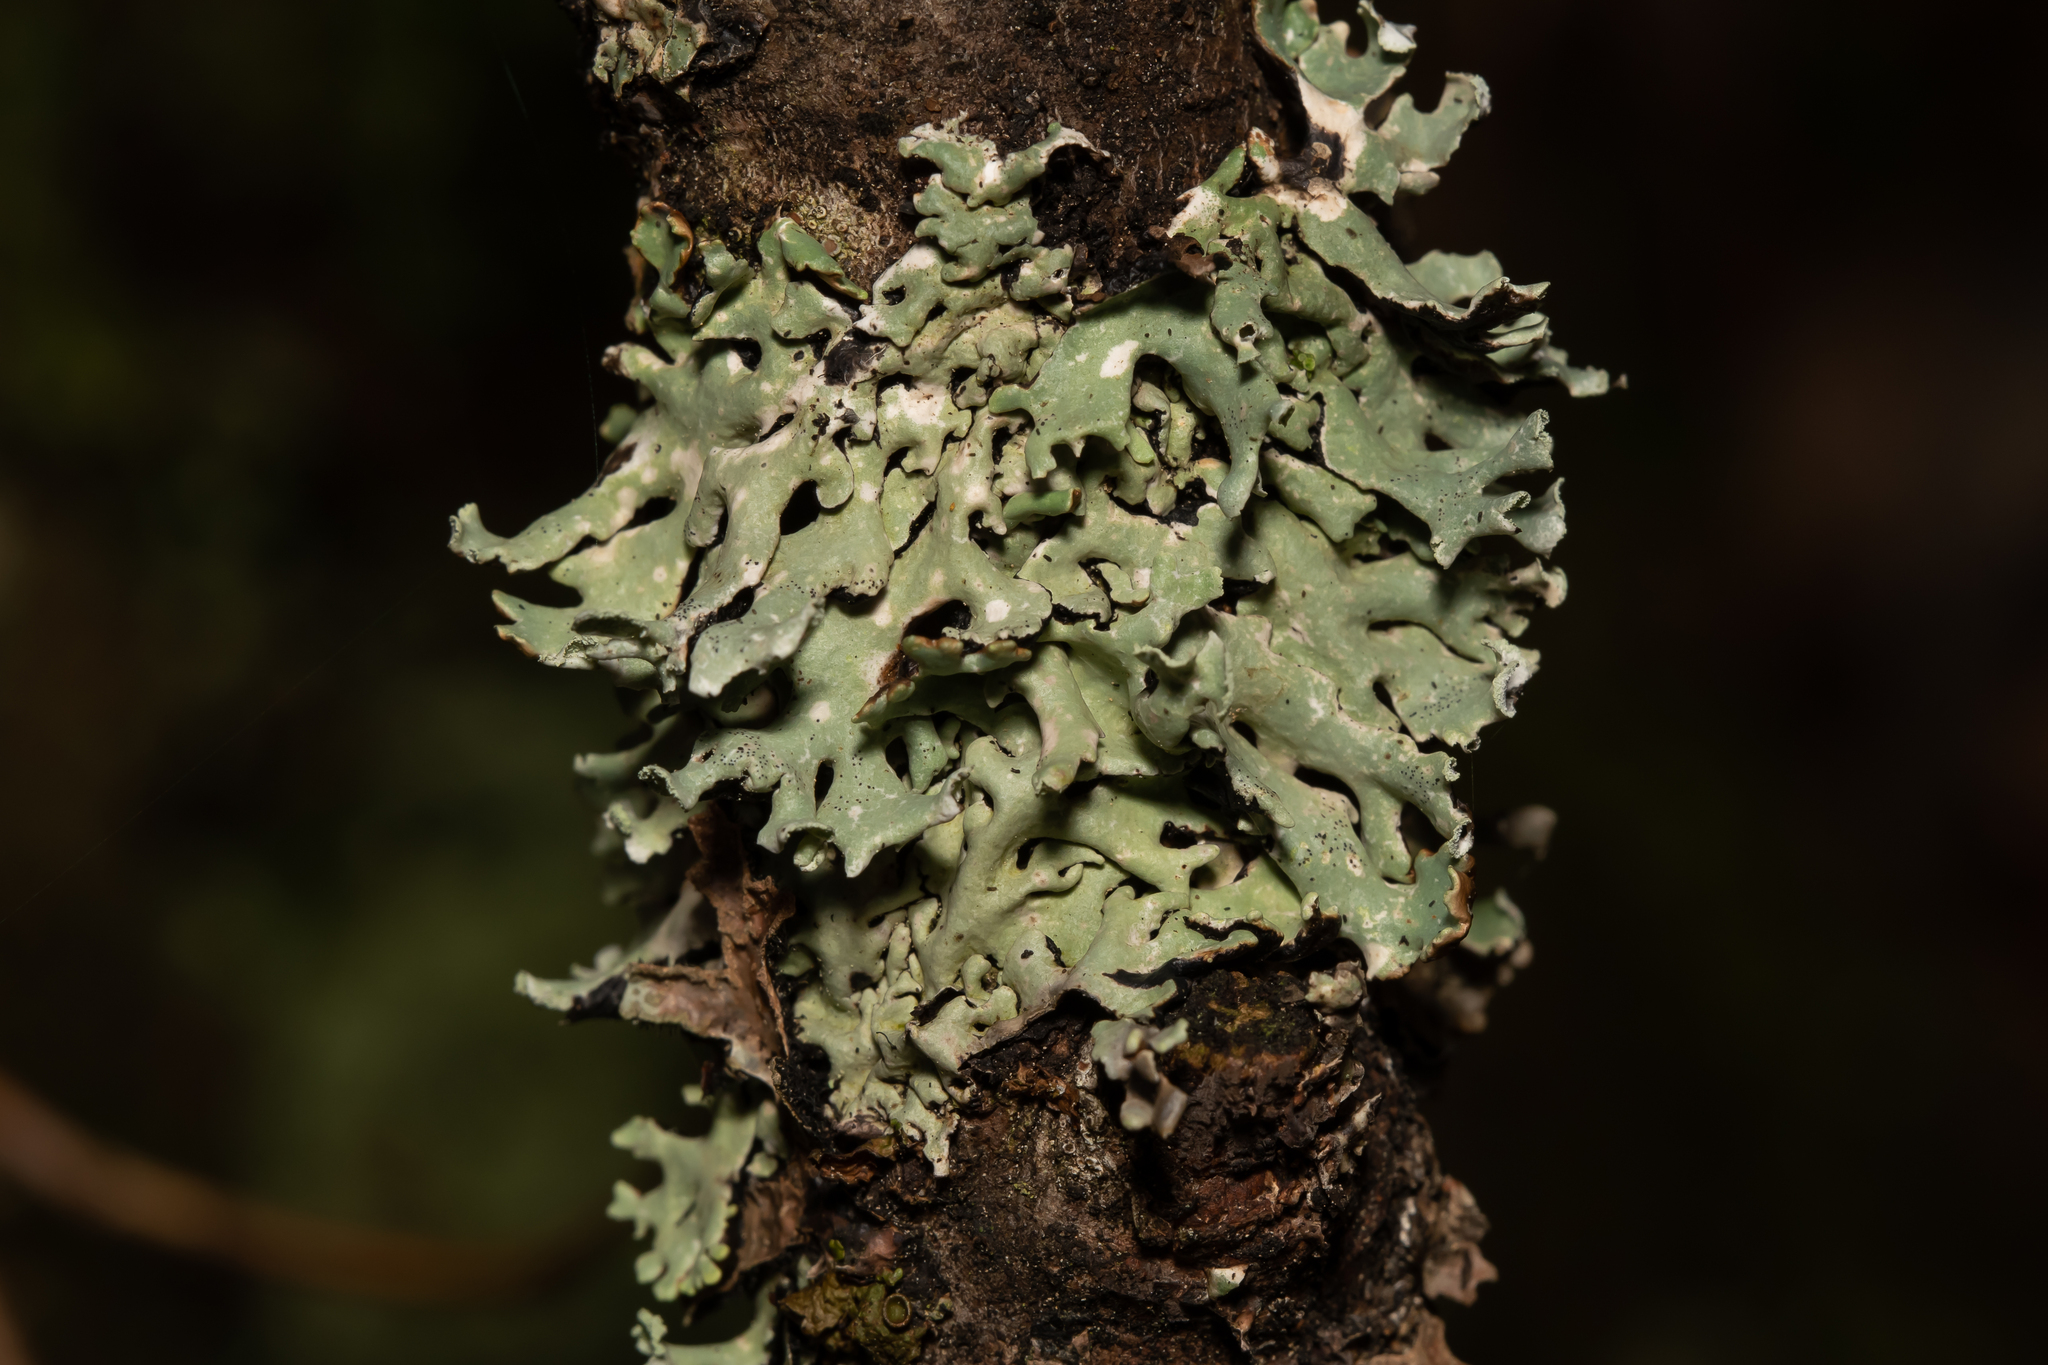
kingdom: Fungi
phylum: Ascomycota
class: Lecanoromycetes
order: Lecanorales
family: Parmeliaceae
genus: Hypogymnia
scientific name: Hypogymnia physodes
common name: Dark crottle
